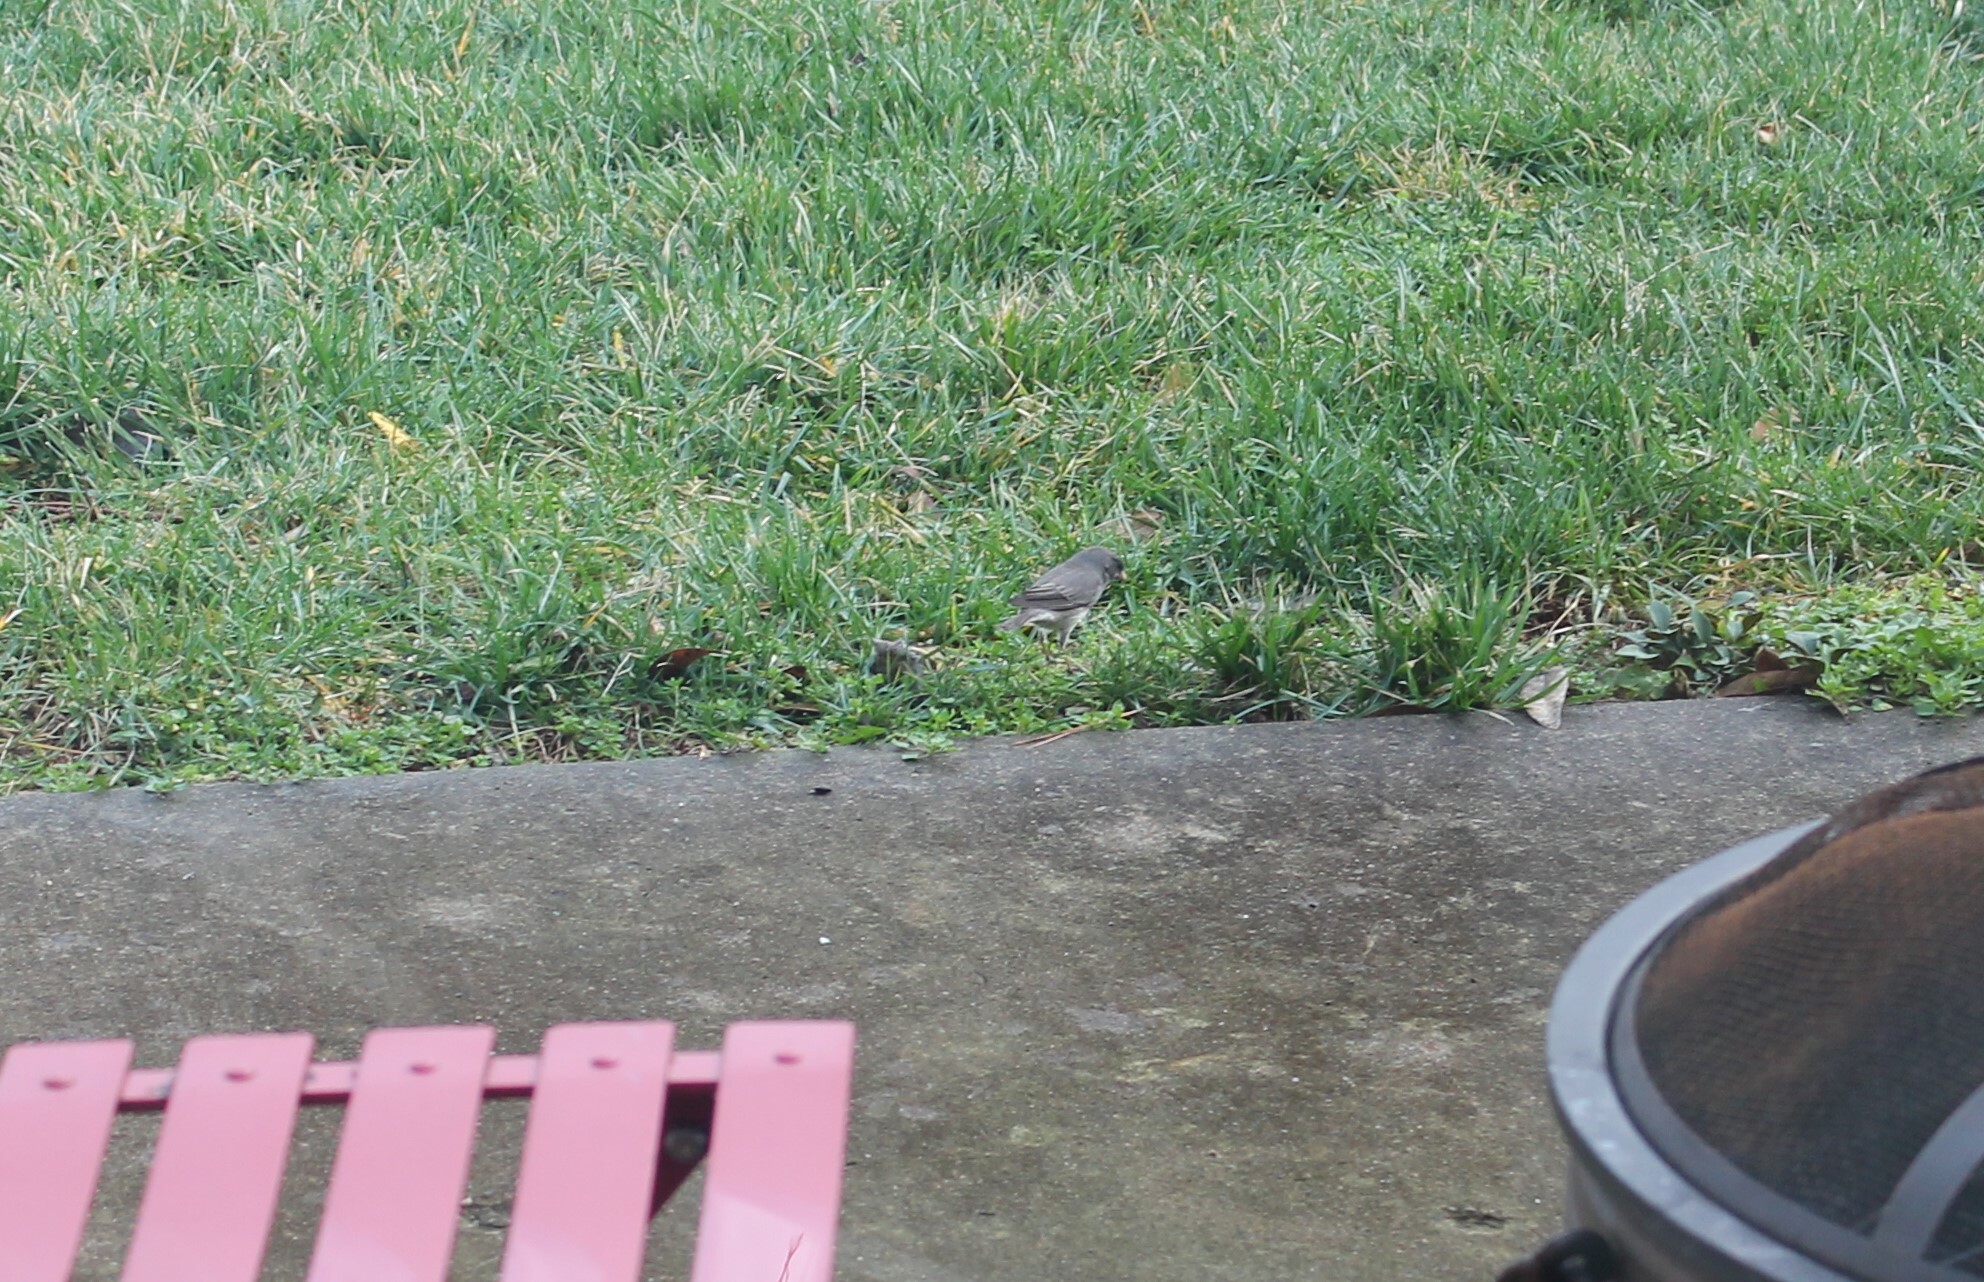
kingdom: Animalia
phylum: Chordata
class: Aves
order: Passeriformes
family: Passerellidae
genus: Junco
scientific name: Junco hyemalis
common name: Dark-eyed junco
